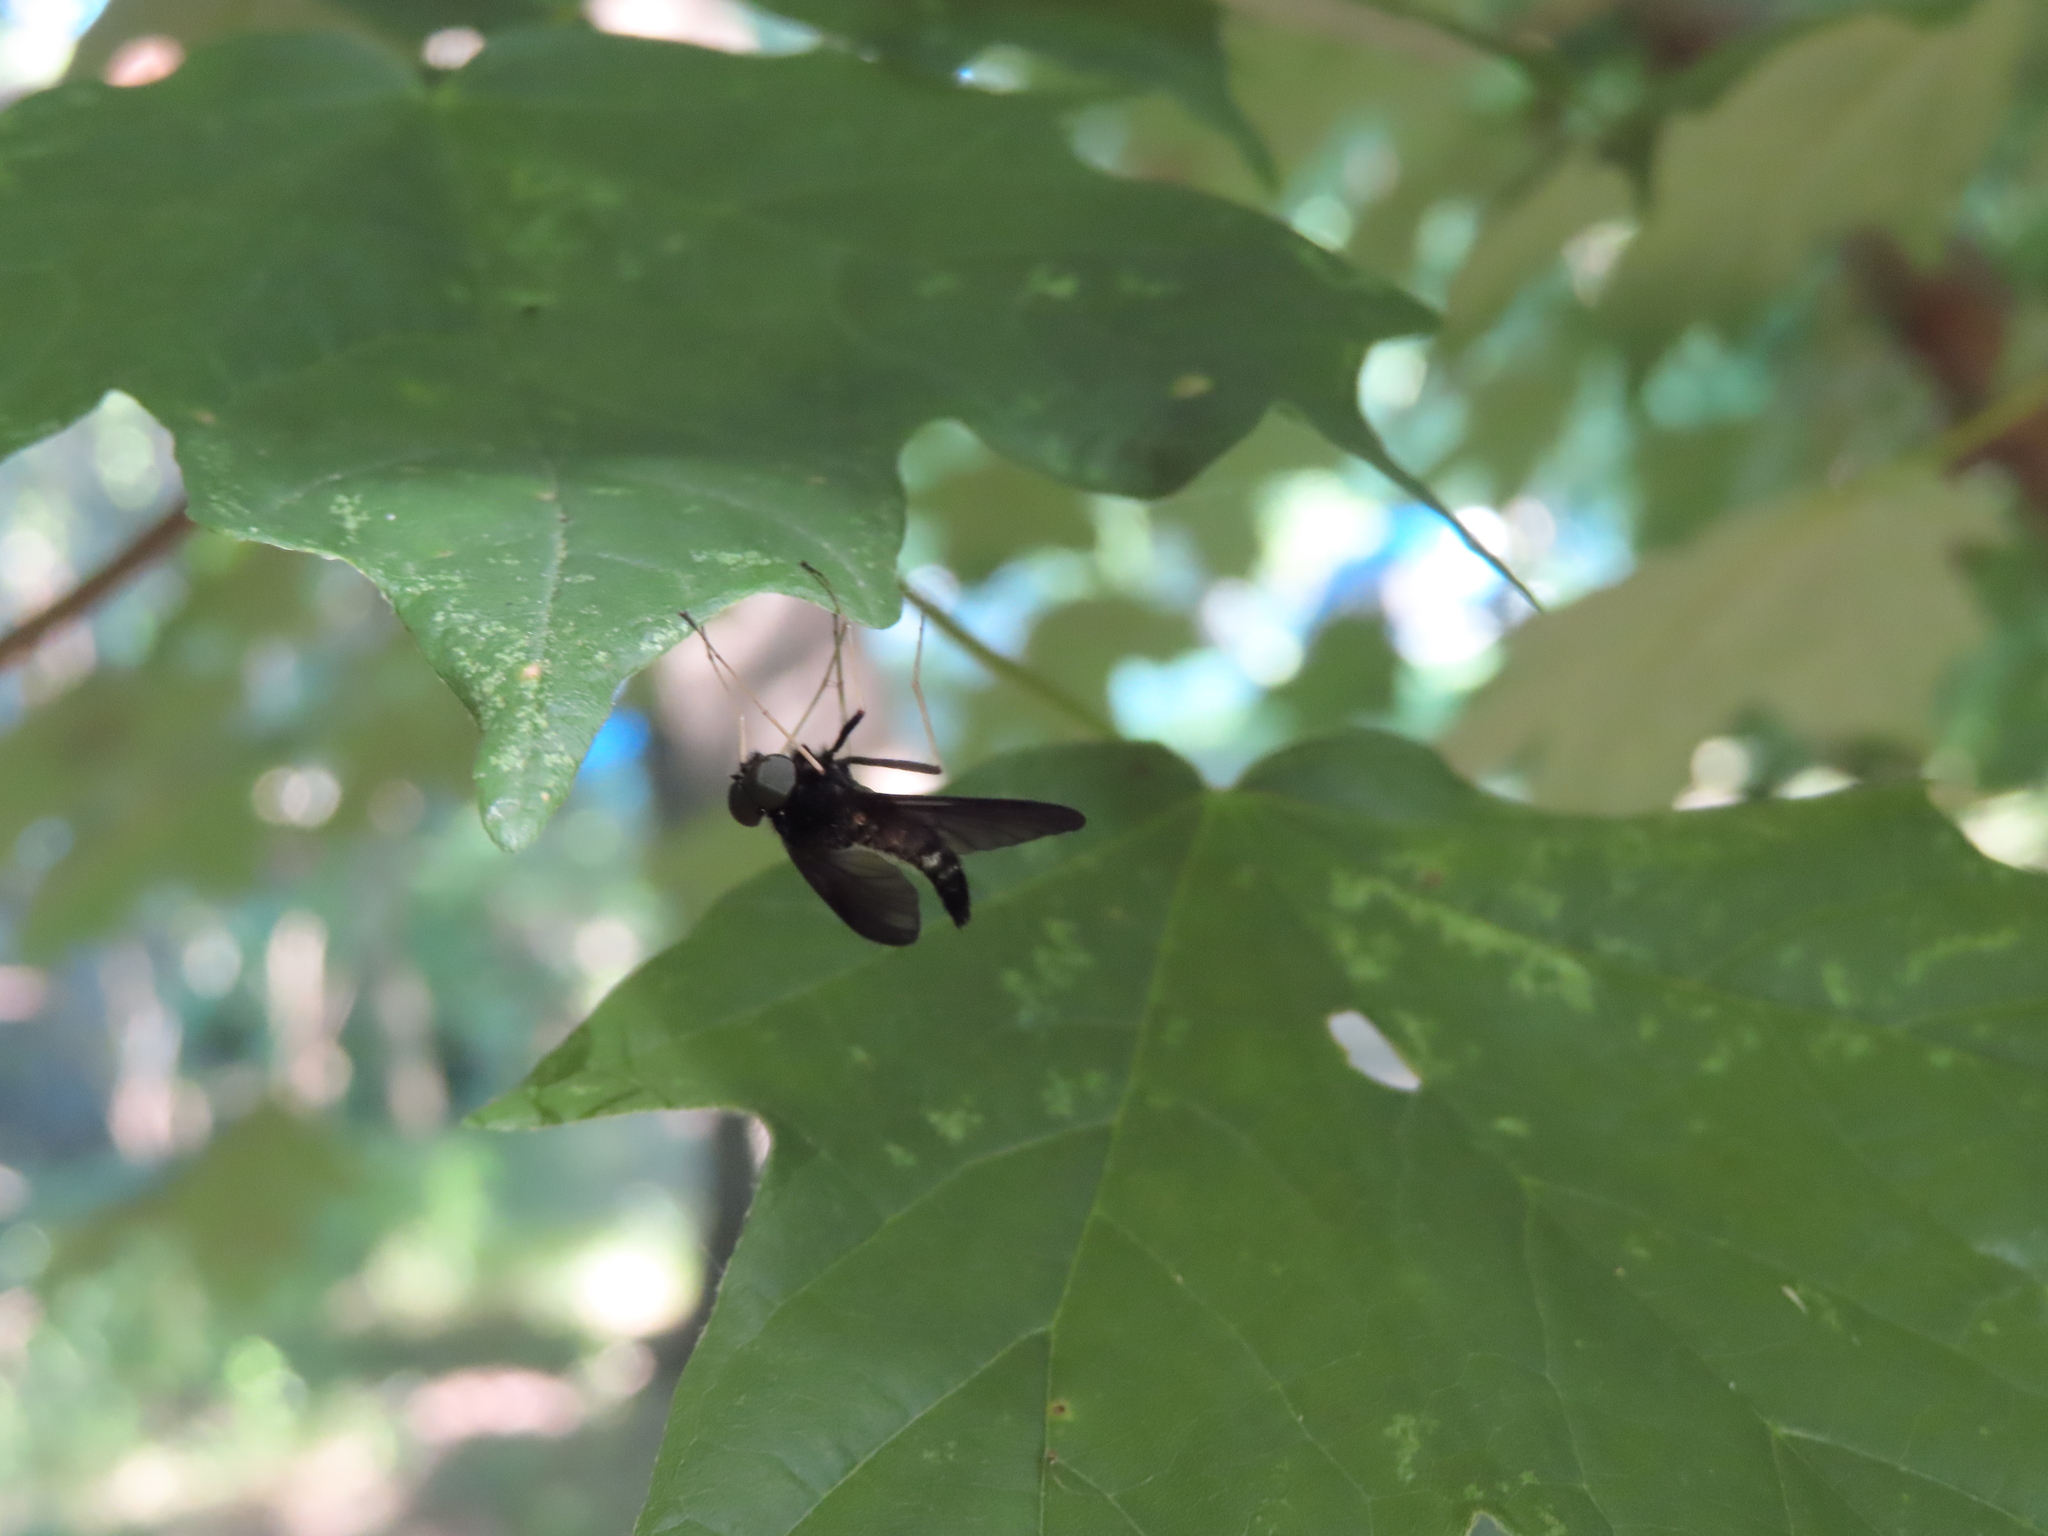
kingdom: Animalia
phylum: Arthropoda
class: Insecta
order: Diptera
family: Rhagionidae
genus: Chrysopilus
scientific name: Chrysopilus connexus
